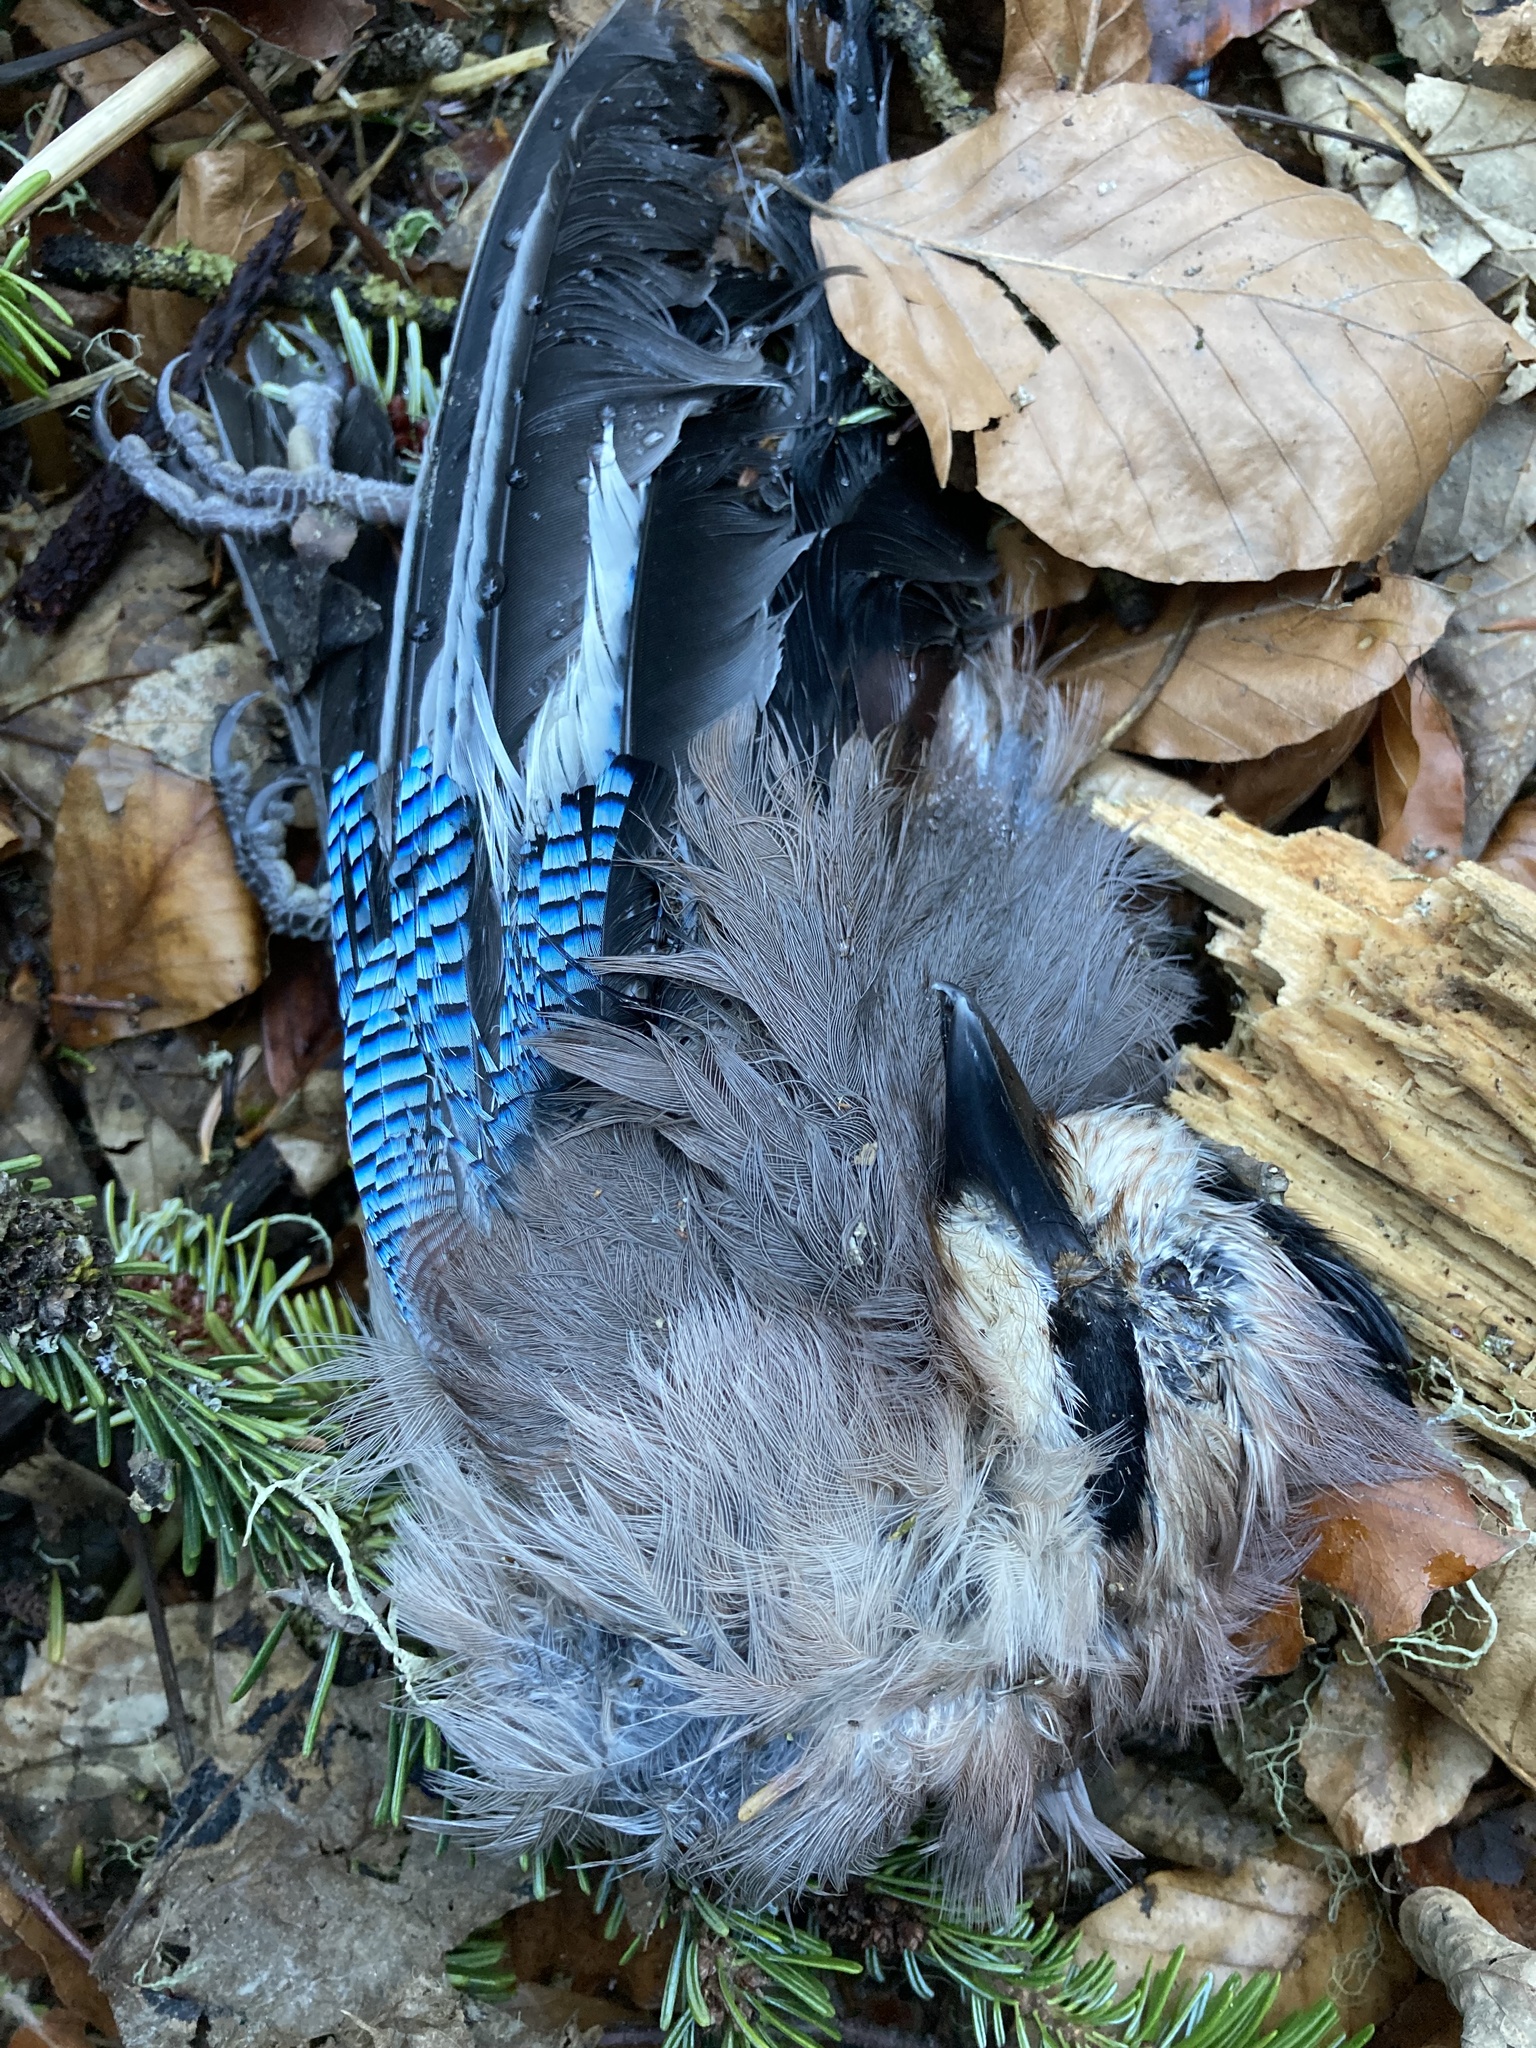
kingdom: Animalia
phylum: Chordata
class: Aves
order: Passeriformes
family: Corvidae
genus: Garrulus
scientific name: Garrulus glandarius
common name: Eurasian jay
